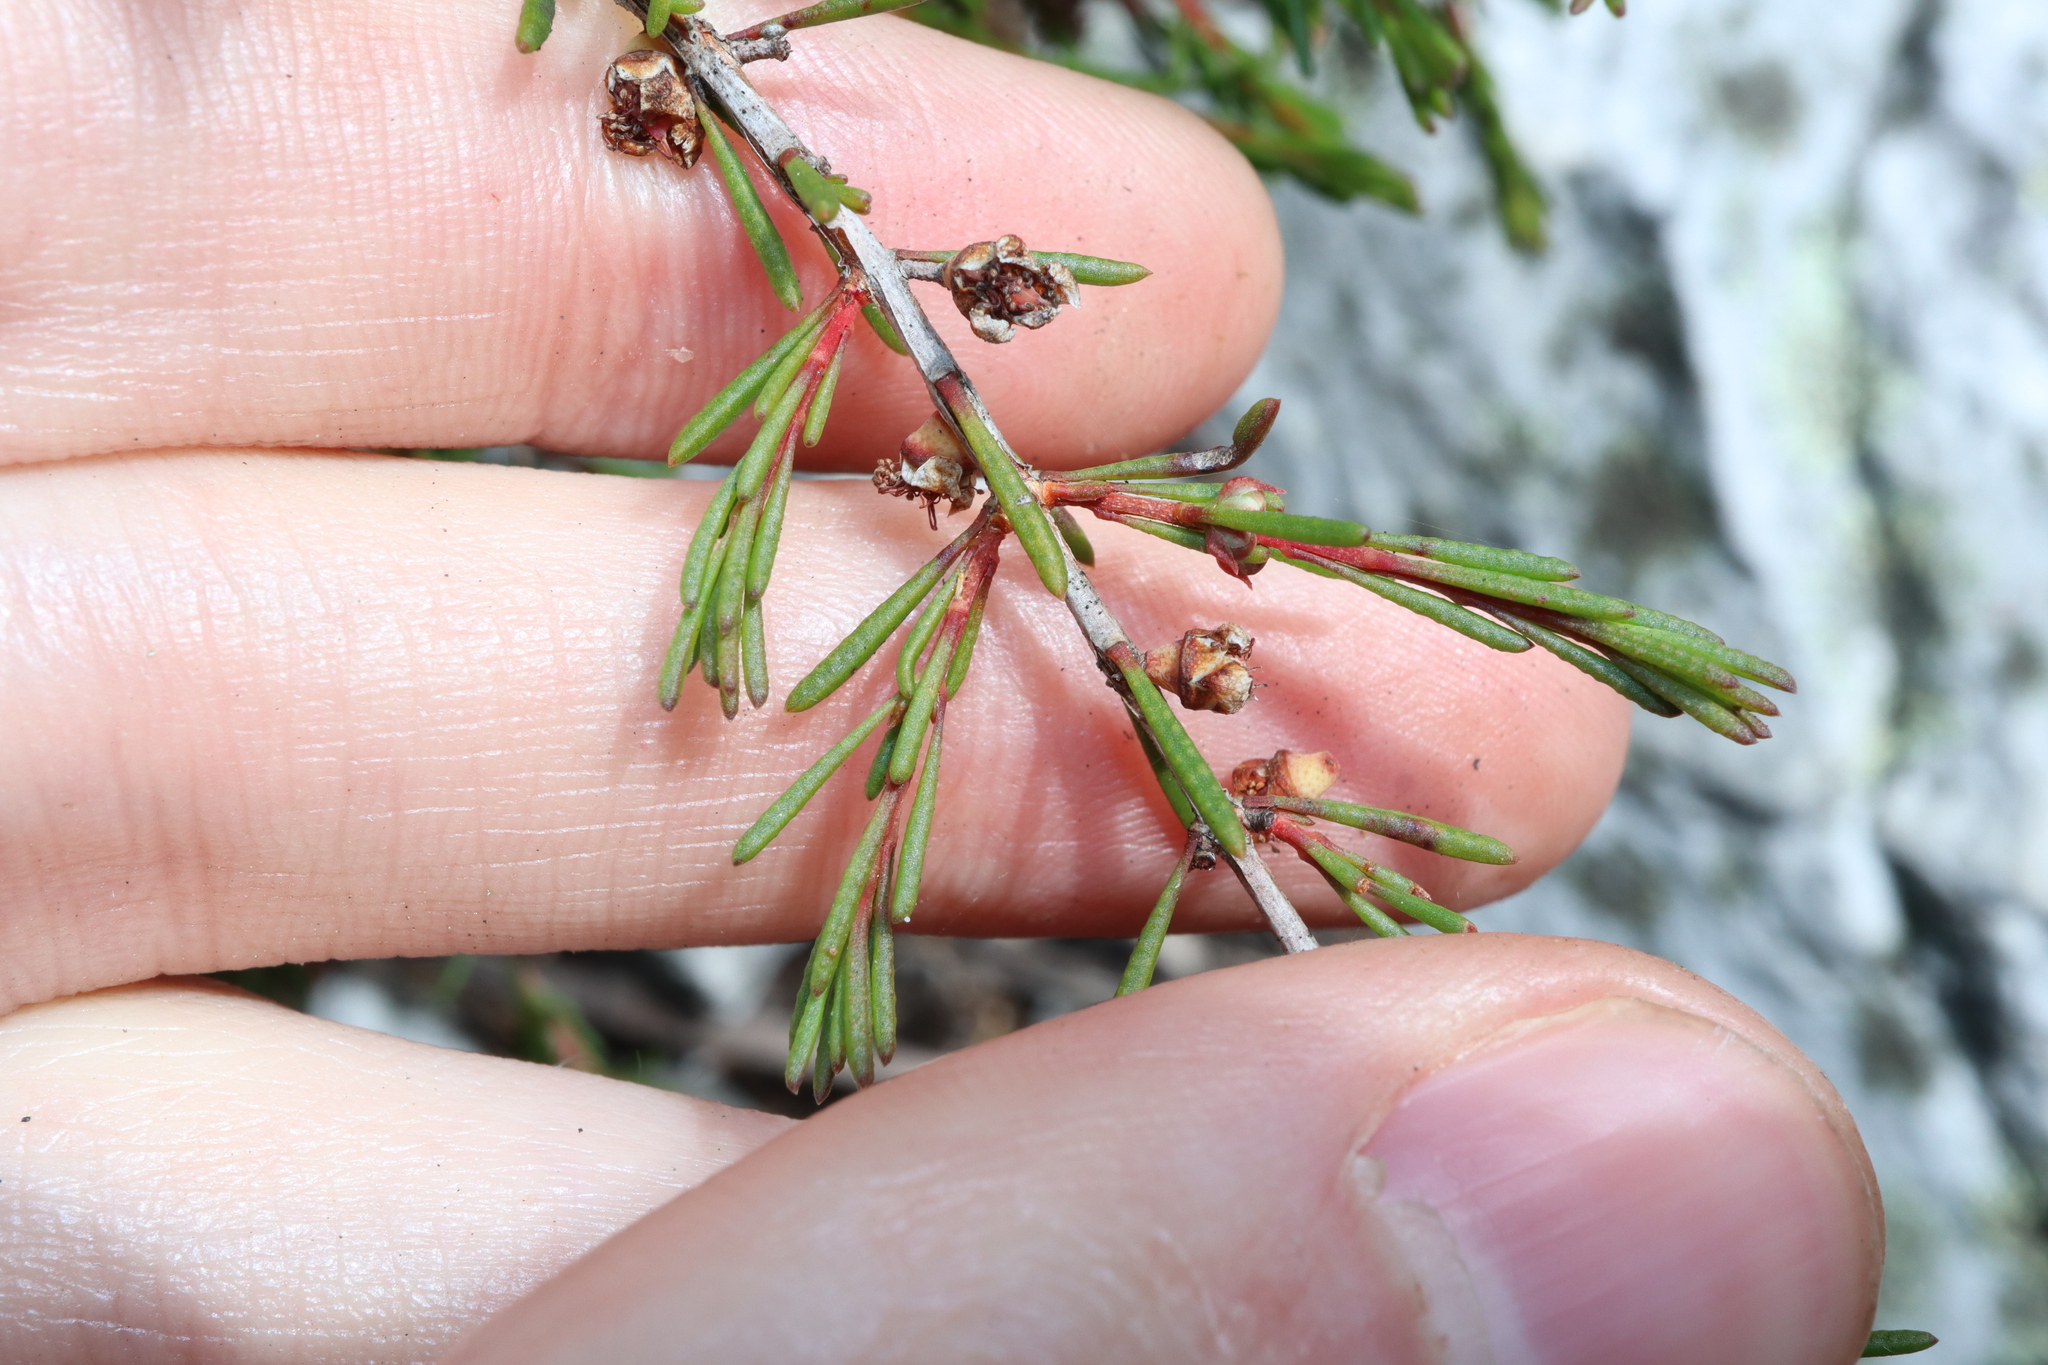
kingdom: Plantae
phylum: Tracheophyta
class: Magnoliopsida
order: Myrtales
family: Myrtaceae
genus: Hypocalymma
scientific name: Hypocalymma jessicae
